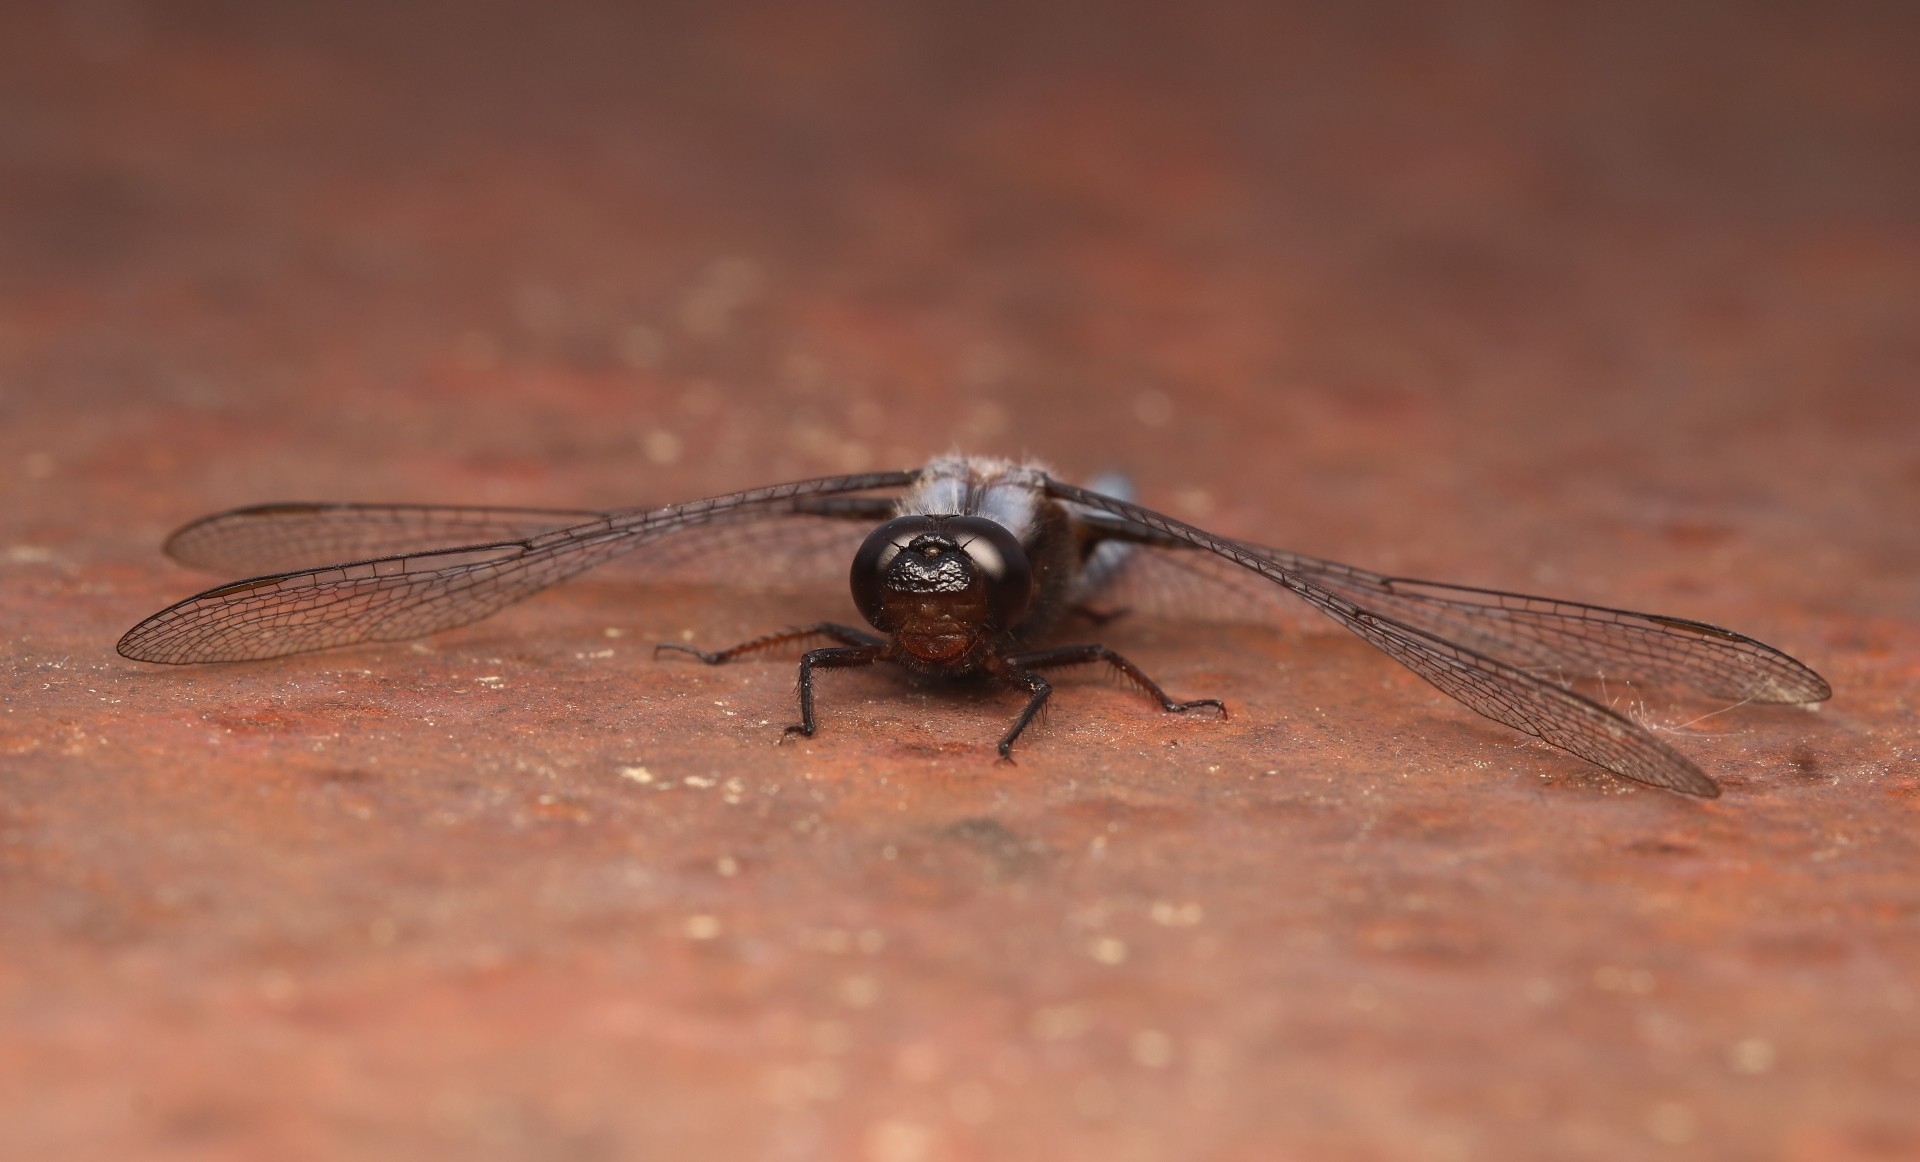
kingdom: Animalia
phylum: Arthropoda
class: Insecta
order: Odonata
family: Libellulidae
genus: Ladona
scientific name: Ladona deplanata
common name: Blue corporal
